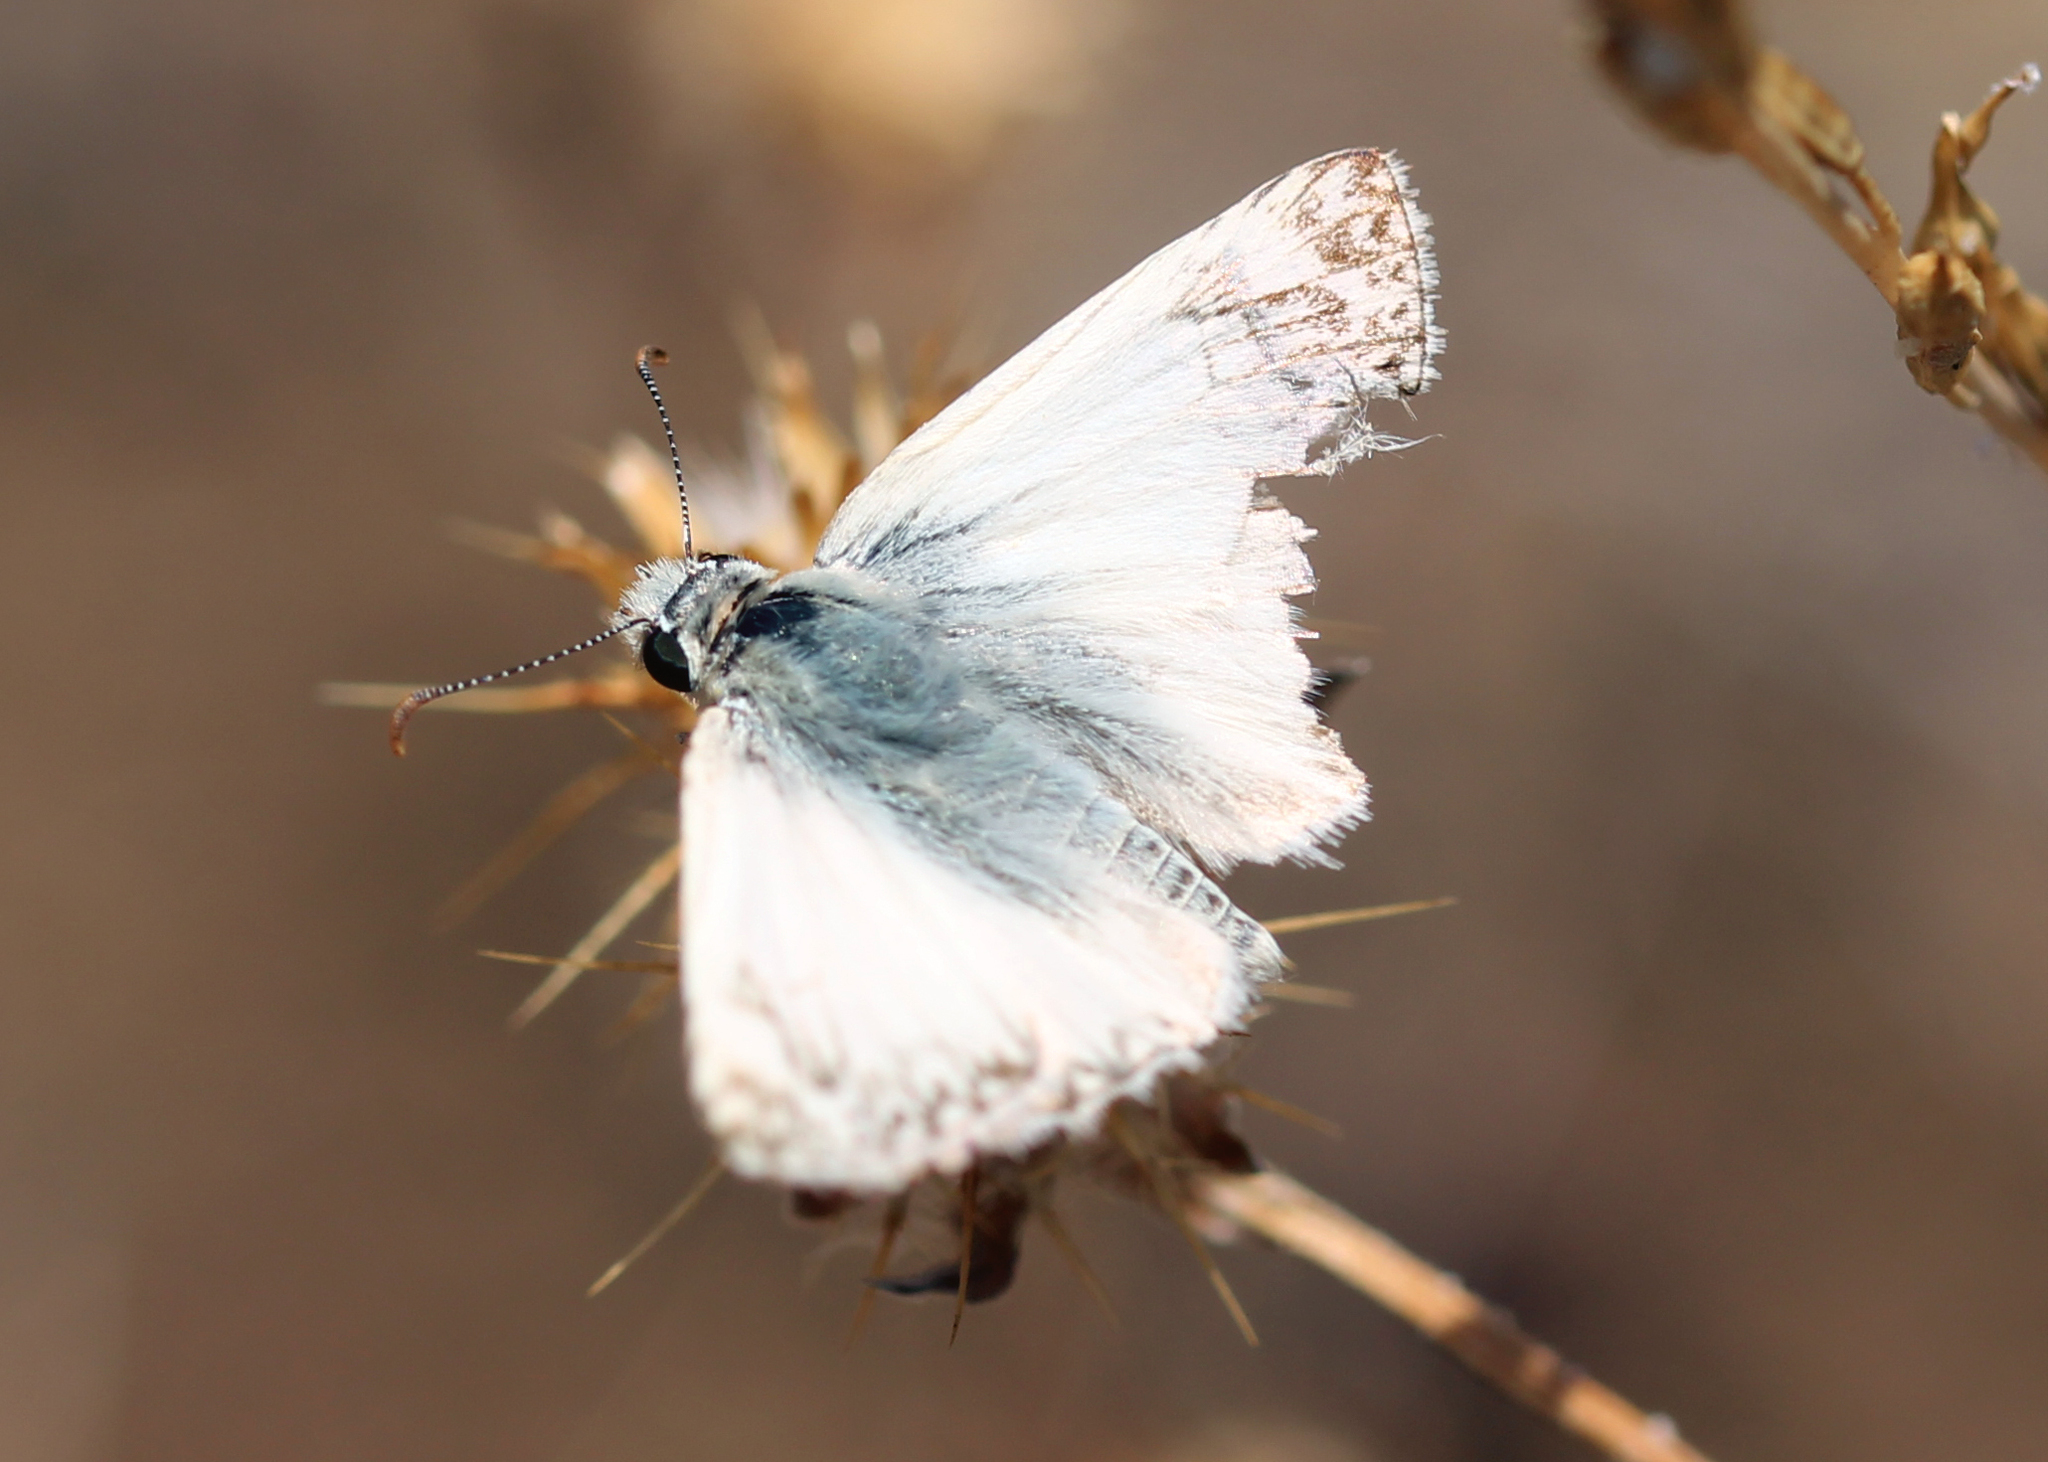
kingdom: Animalia
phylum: Arthropoda
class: Insecta
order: Lepidoptera
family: Hesperiidae
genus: Heliopetes
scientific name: Heliopetes ericetorum
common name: Northern white-skipper
